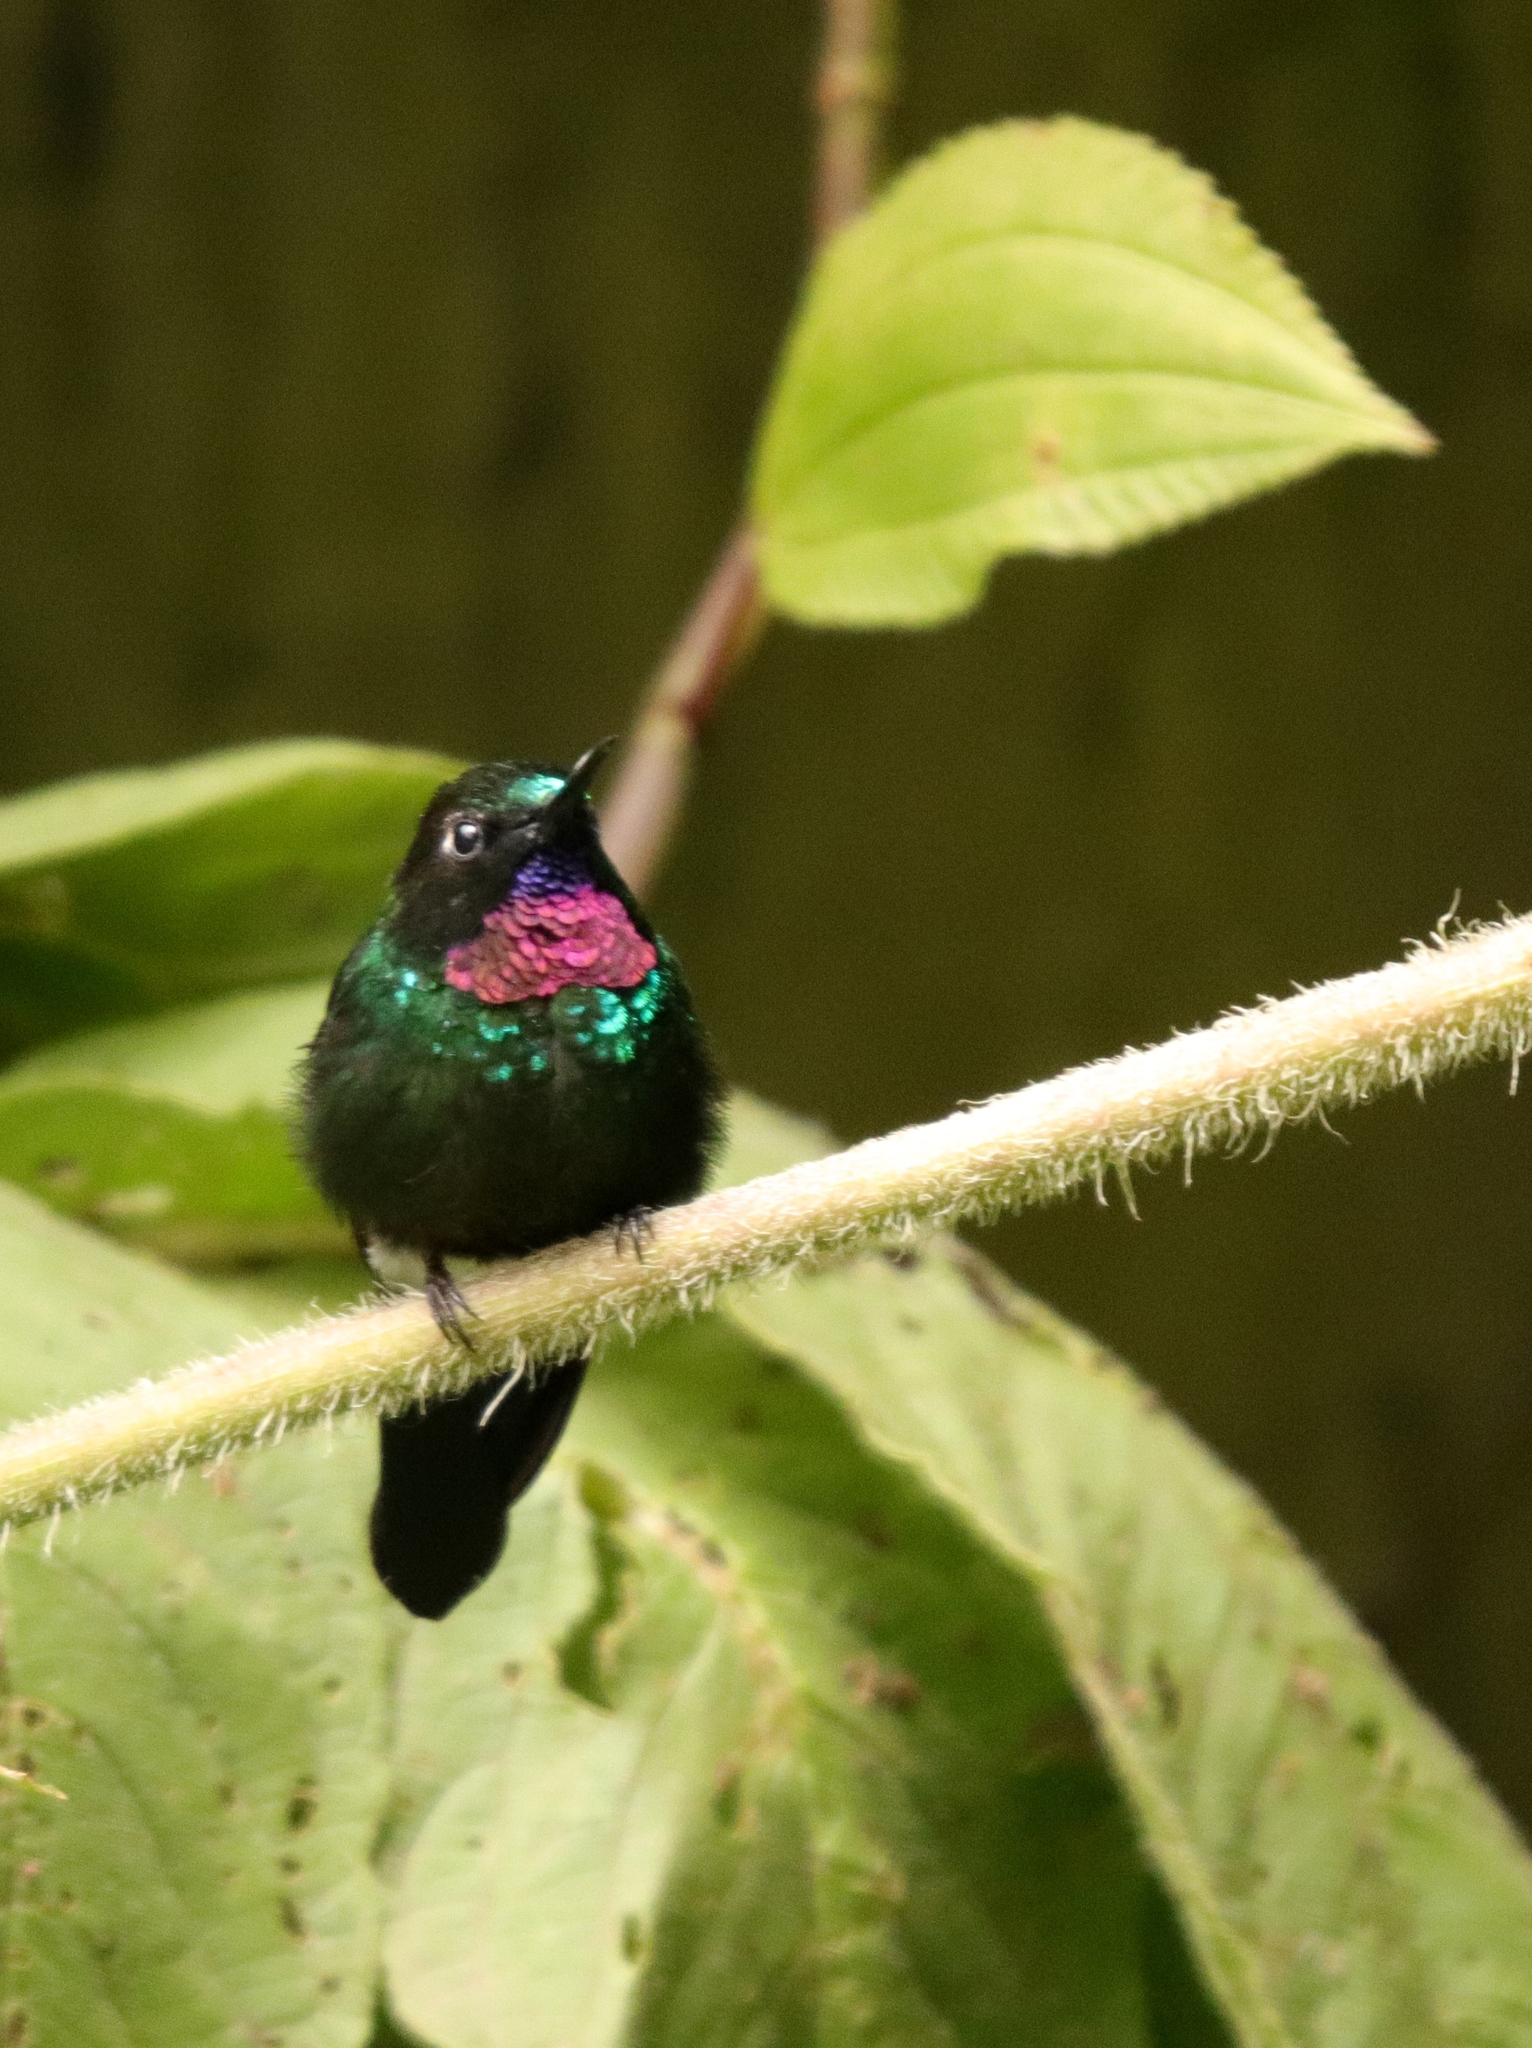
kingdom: Animalia
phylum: Chordata
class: Aves
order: Apodiformes
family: Trochilidae
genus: Heliangelus
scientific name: Heliangelus exortis
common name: Tourmaline sunangel
